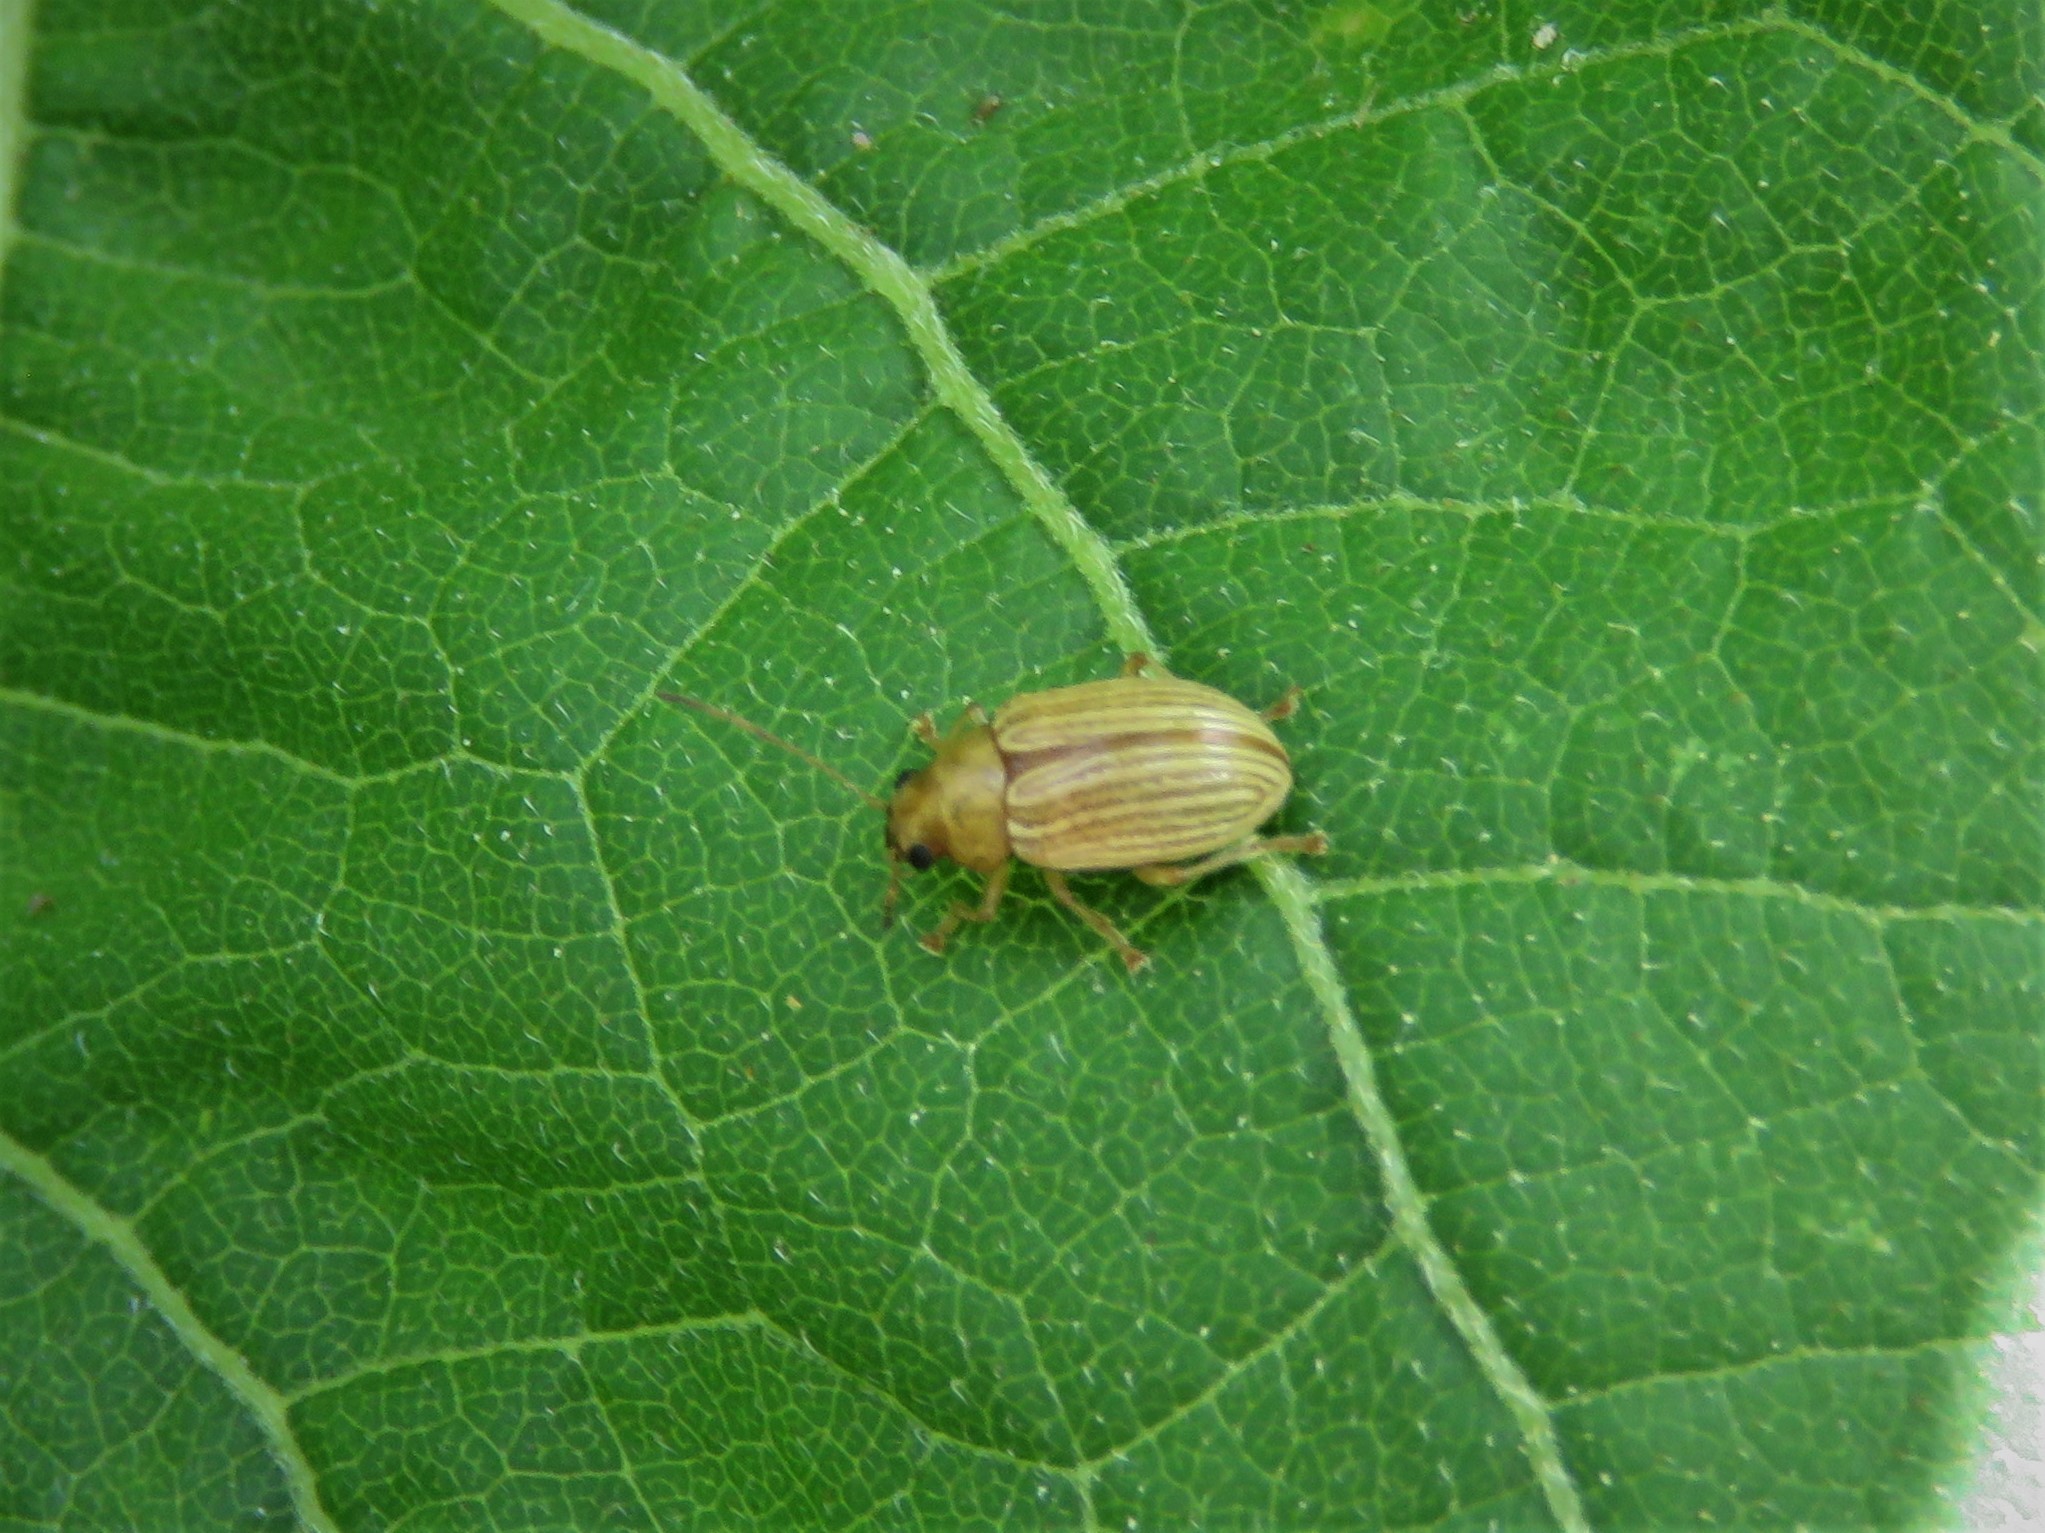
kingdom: Animalia
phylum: Arthropoda
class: Insecta
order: Coleoptera
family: Chrysomelidae
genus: Colaspis
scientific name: Colaspis brunnea
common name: Grape colaspis
